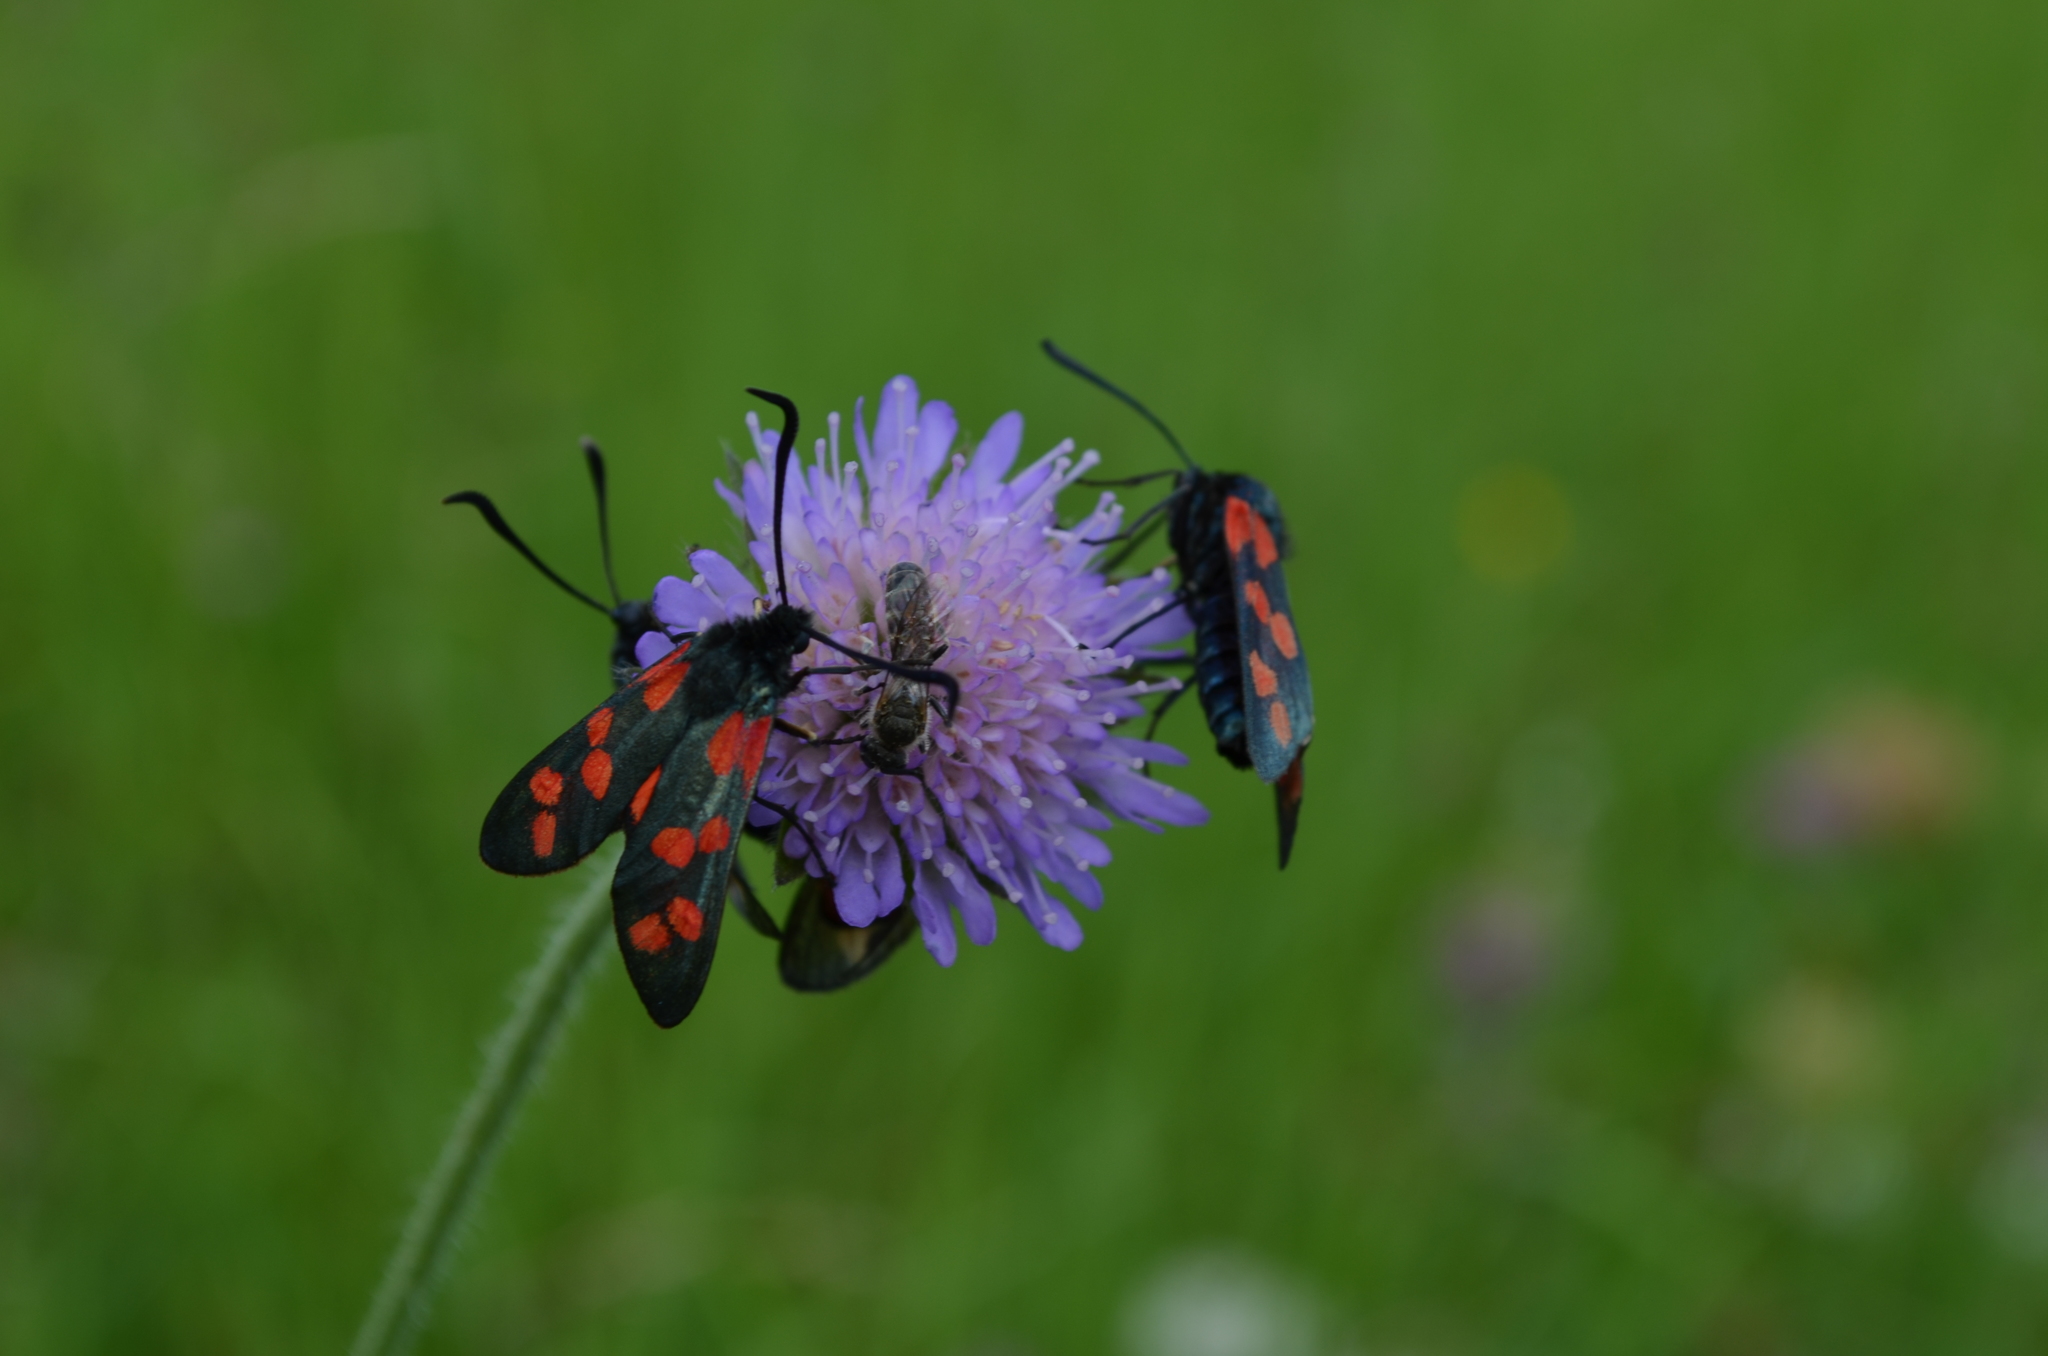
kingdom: Animalia
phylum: Arthropoda
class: Insecta
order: Lepidoptera
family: Zygaenidae
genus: Zygaena
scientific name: Zygaena filipendulae
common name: Six-spot burnet
